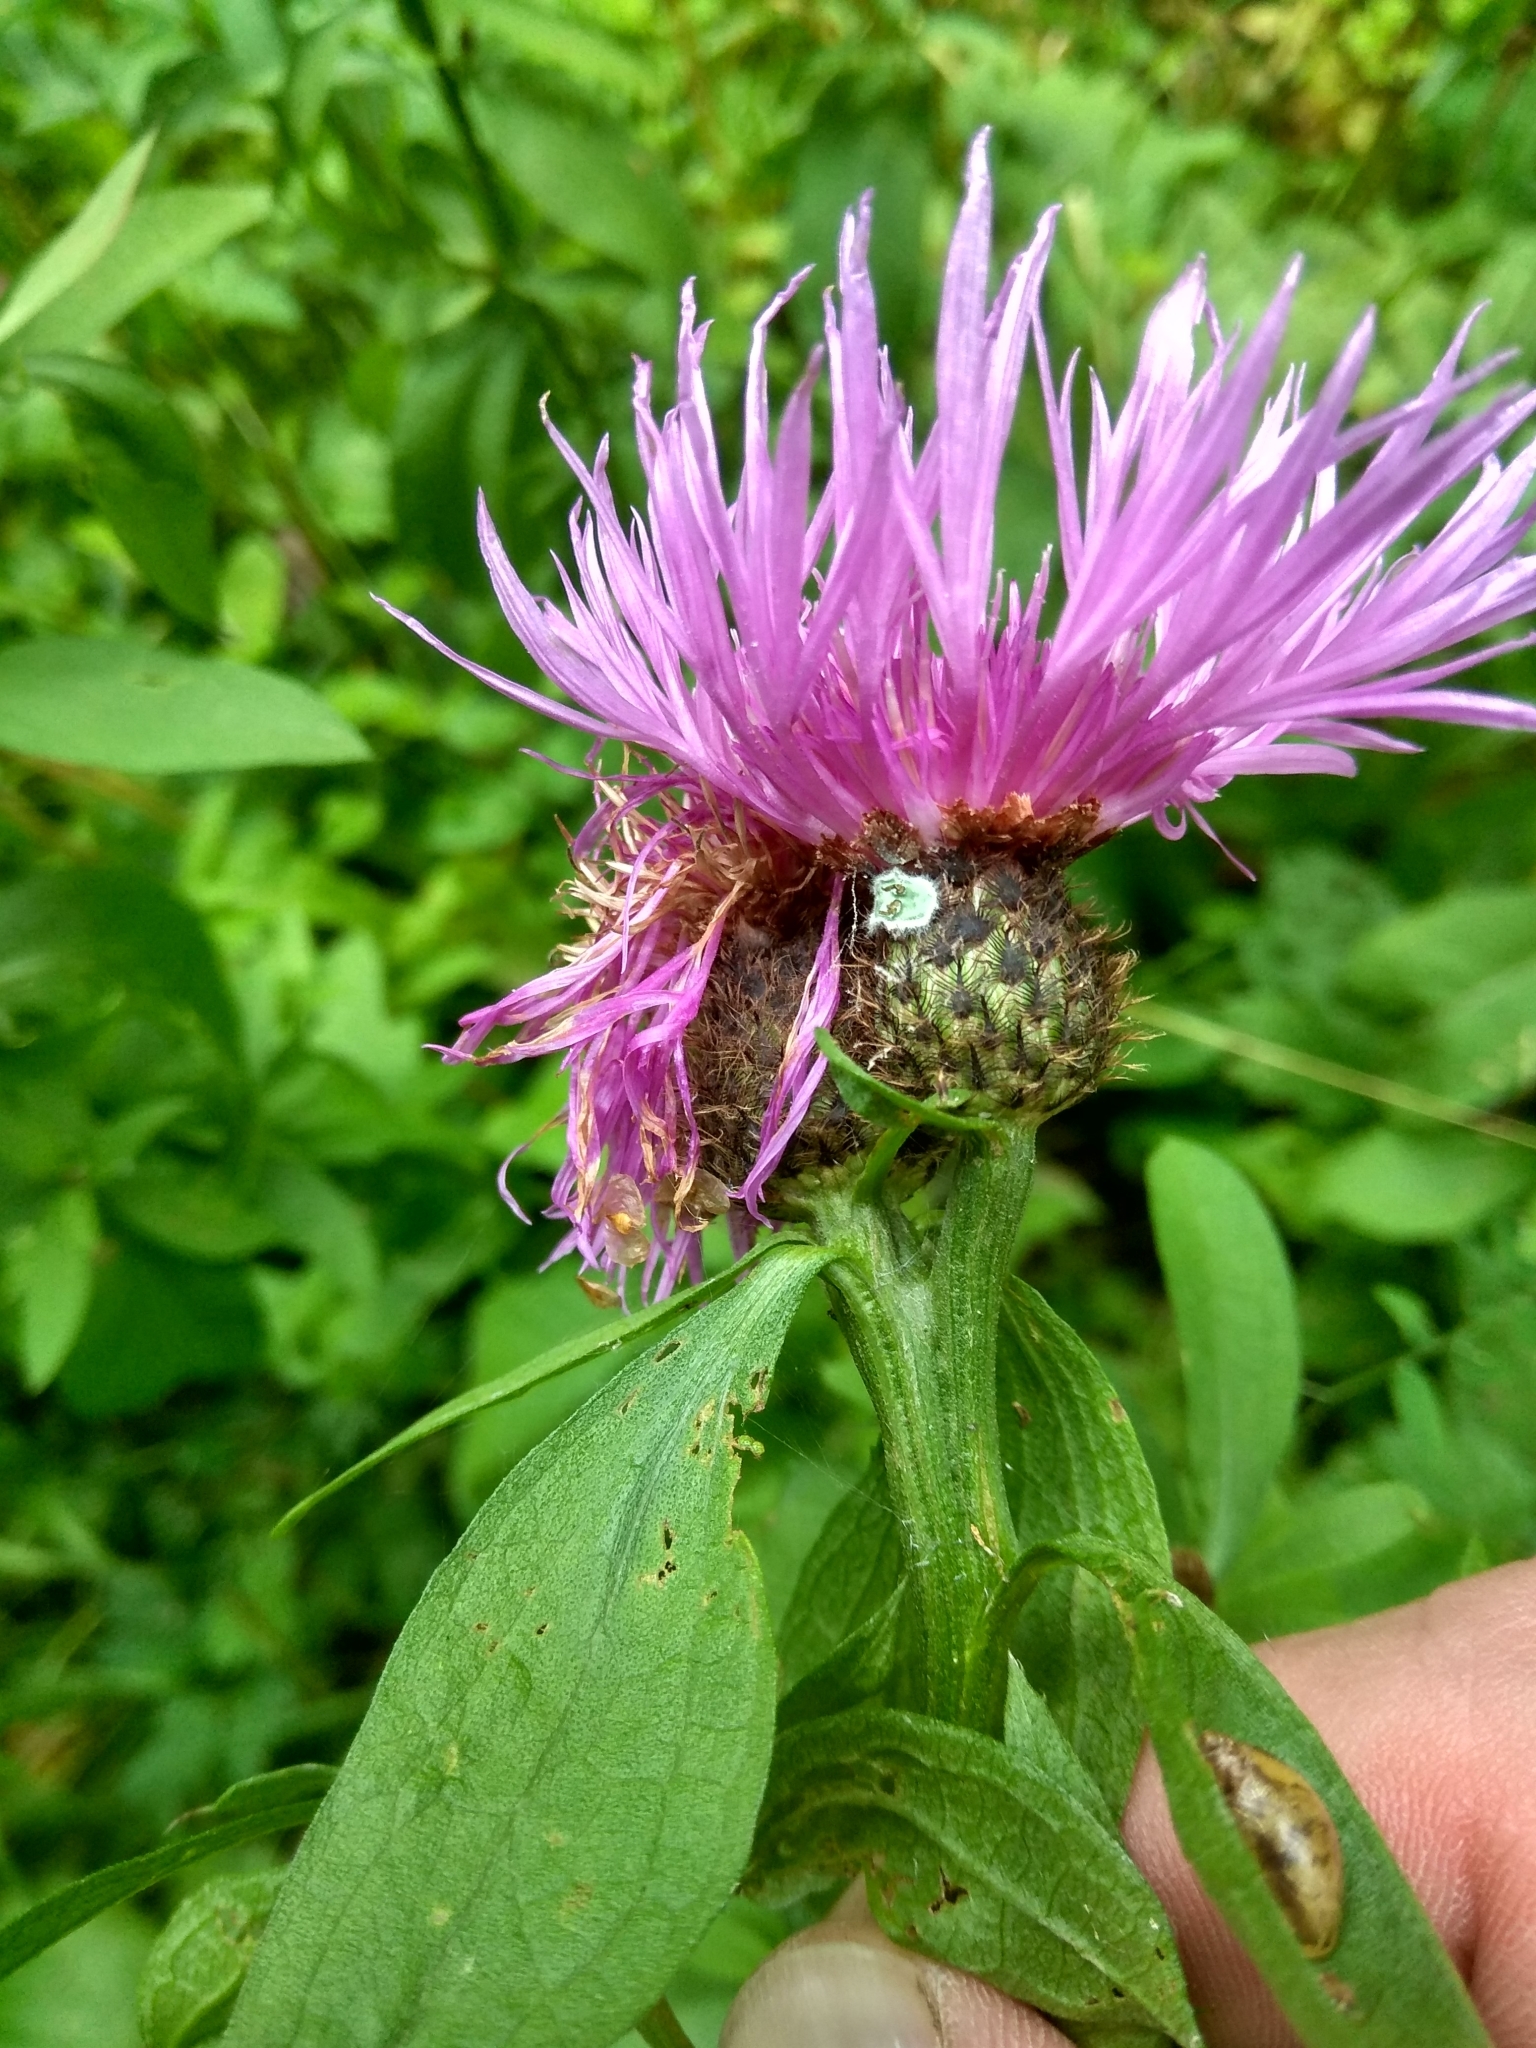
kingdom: Plantae
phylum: Tracheophyta
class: Magnoliopsida
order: Asterales
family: Asteraceae
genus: Centaurea
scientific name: Centaurea phrygia
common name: Wig knapweed
